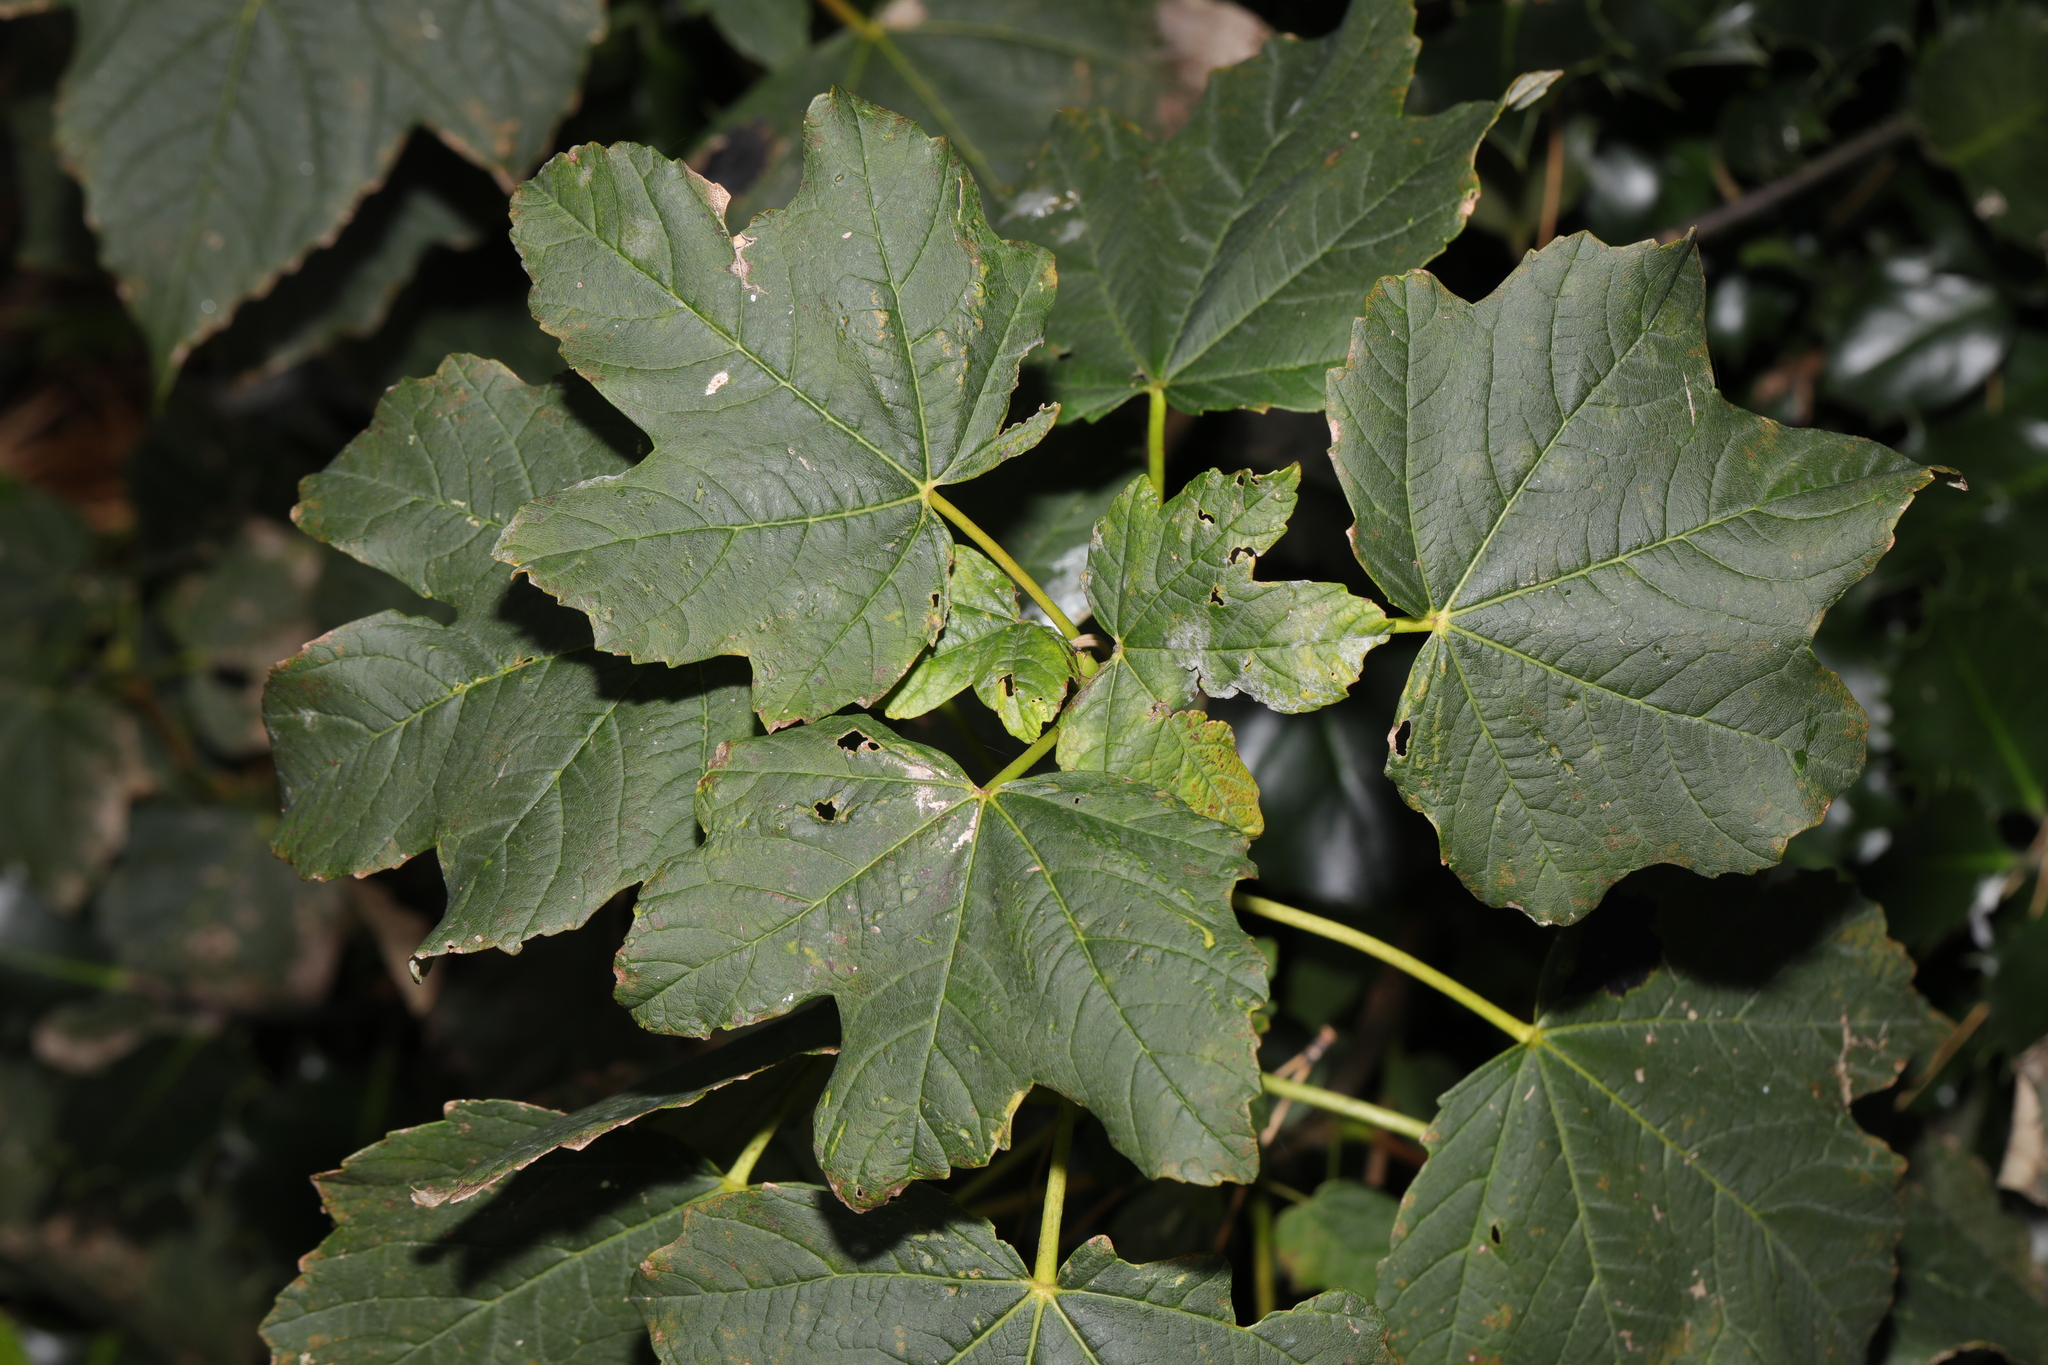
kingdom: Plantae
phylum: Tracheophyta
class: Magnoliopsida
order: Sapindales
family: Sapindaceae
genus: Acer
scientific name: Acer pseudoplatanus
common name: Sycamore
